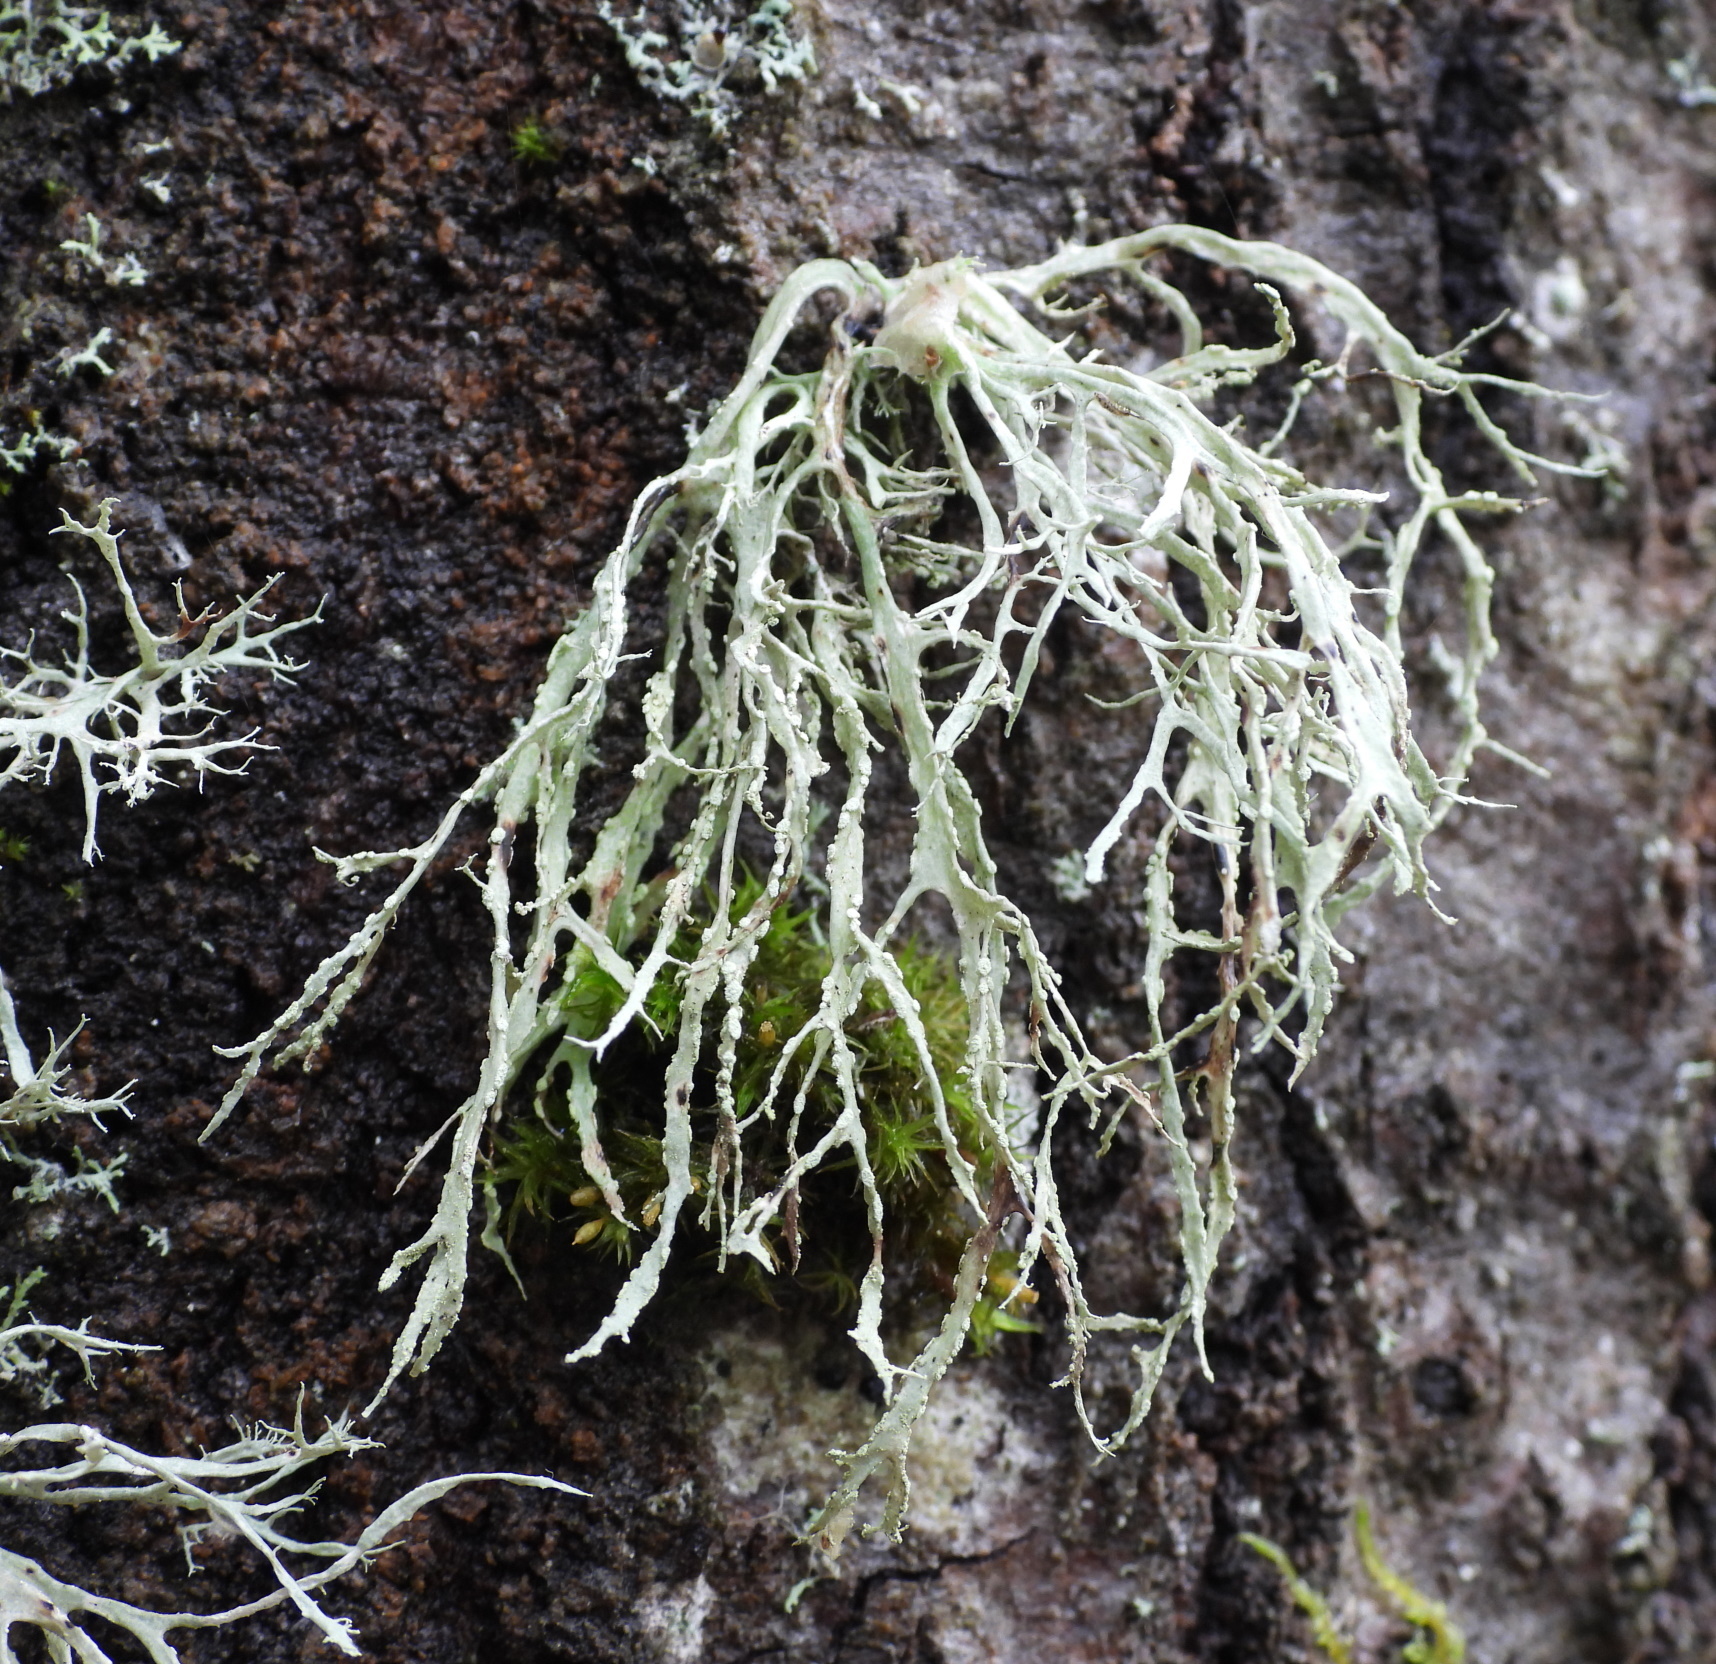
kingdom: Fungi
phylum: Ascomycota
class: Lecanoromycetes
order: Lecanorales
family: Ramalinaceae
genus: Ramalina
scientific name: Ramalina farinacea
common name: Farinose cartilage lichen
